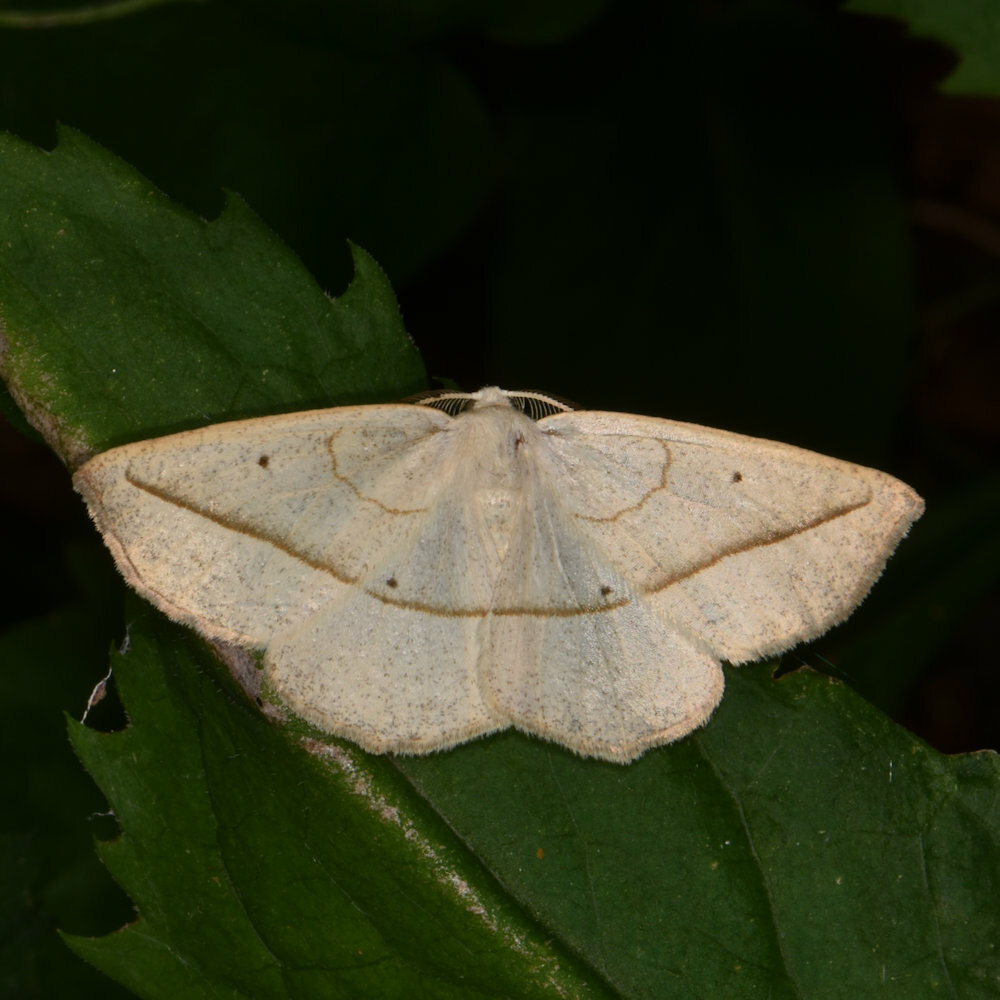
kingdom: Animalia
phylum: Arthropoda
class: Insecta
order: Lepidoptera
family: Geometridae
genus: Eusarca
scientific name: Eusarca confusaria
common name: Confused eusarca
